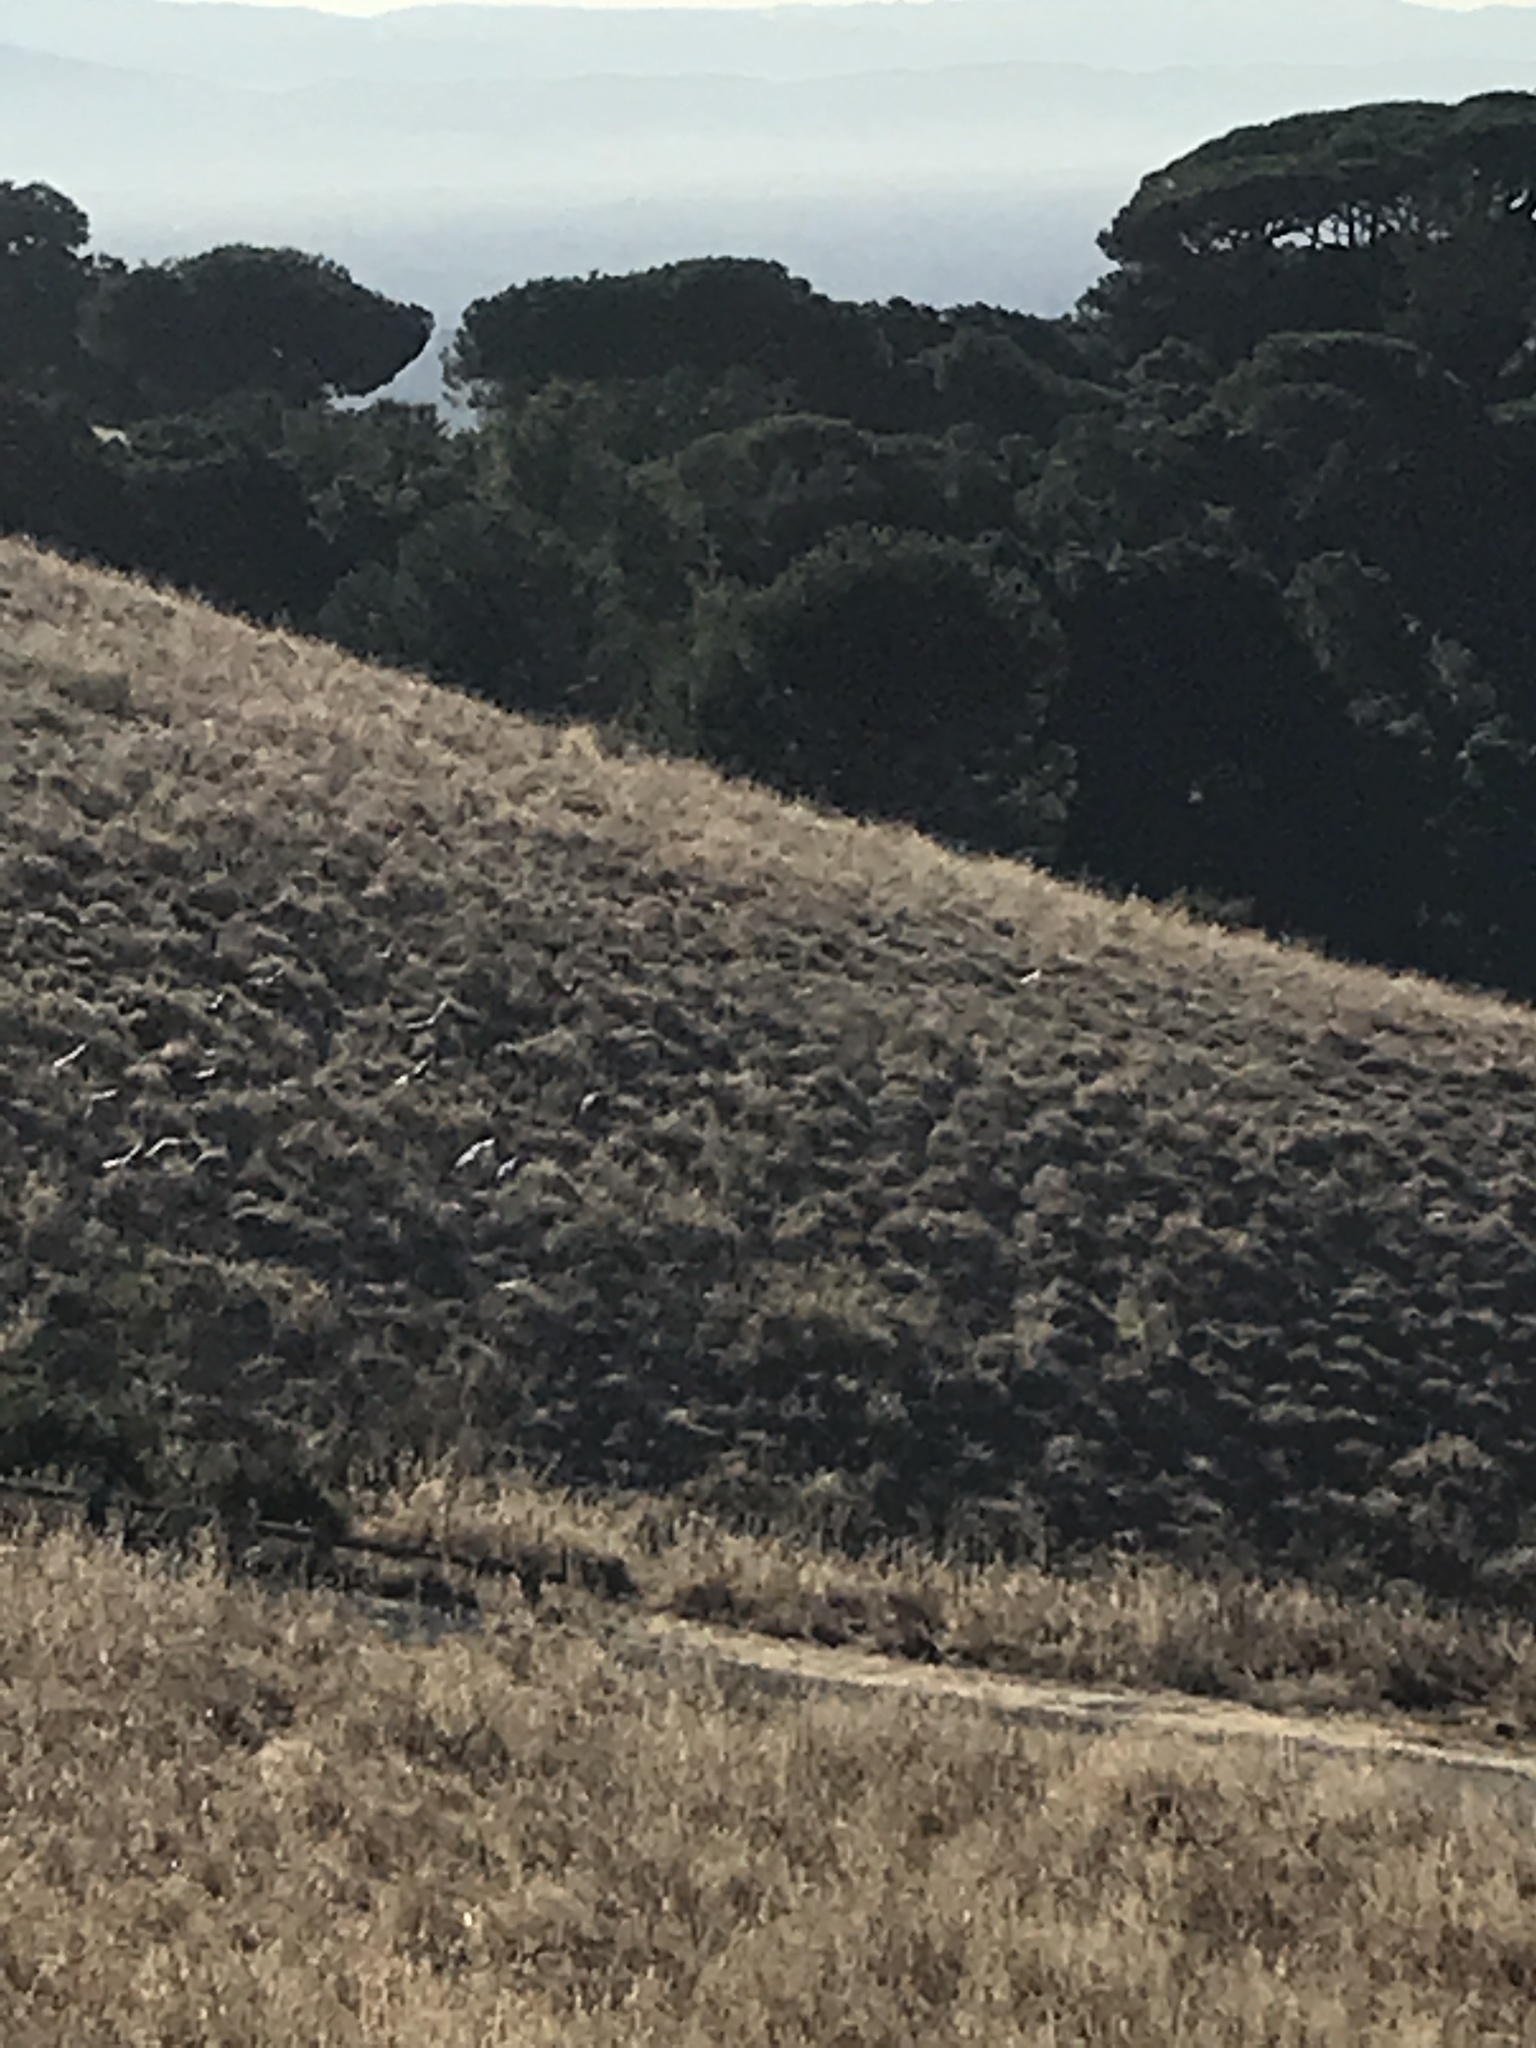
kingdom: Animalia
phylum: Chordata
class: Aves
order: Columbiformes
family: Columbidae
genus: Columba
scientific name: Columba livia
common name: Rock pigeon
